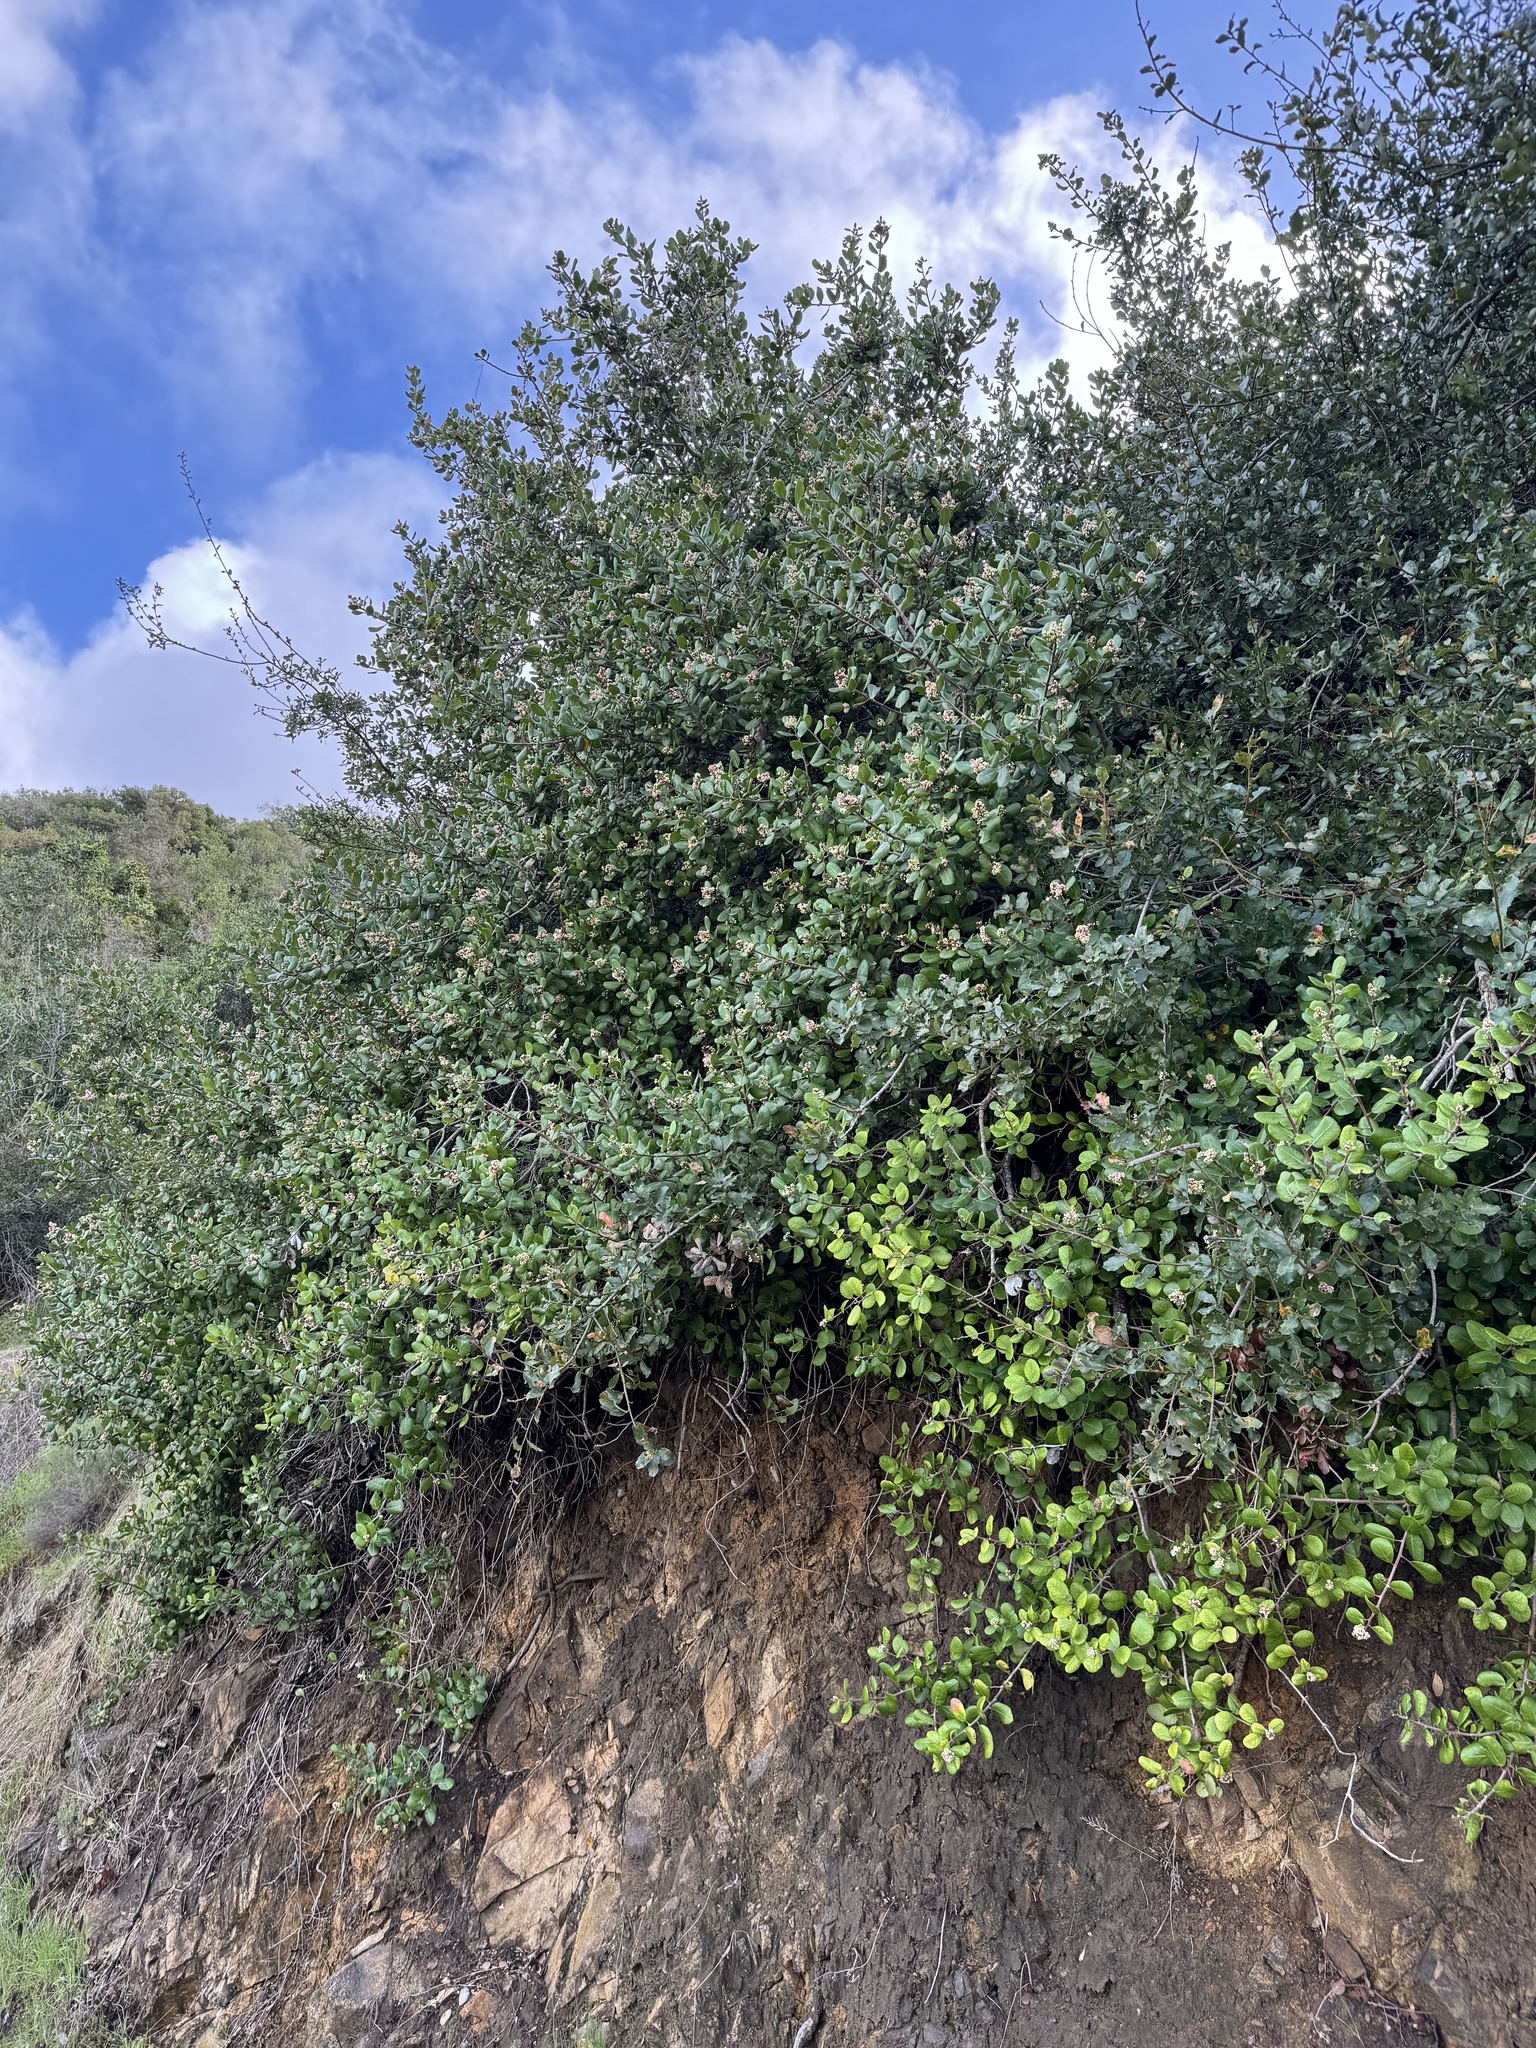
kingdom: Plantae
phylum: Tracheophyta
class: Magnoliopsida
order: Sapindales
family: Anacardiaceae
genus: Rhus
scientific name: Rhus integrifolia
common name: Lemonade sumac
